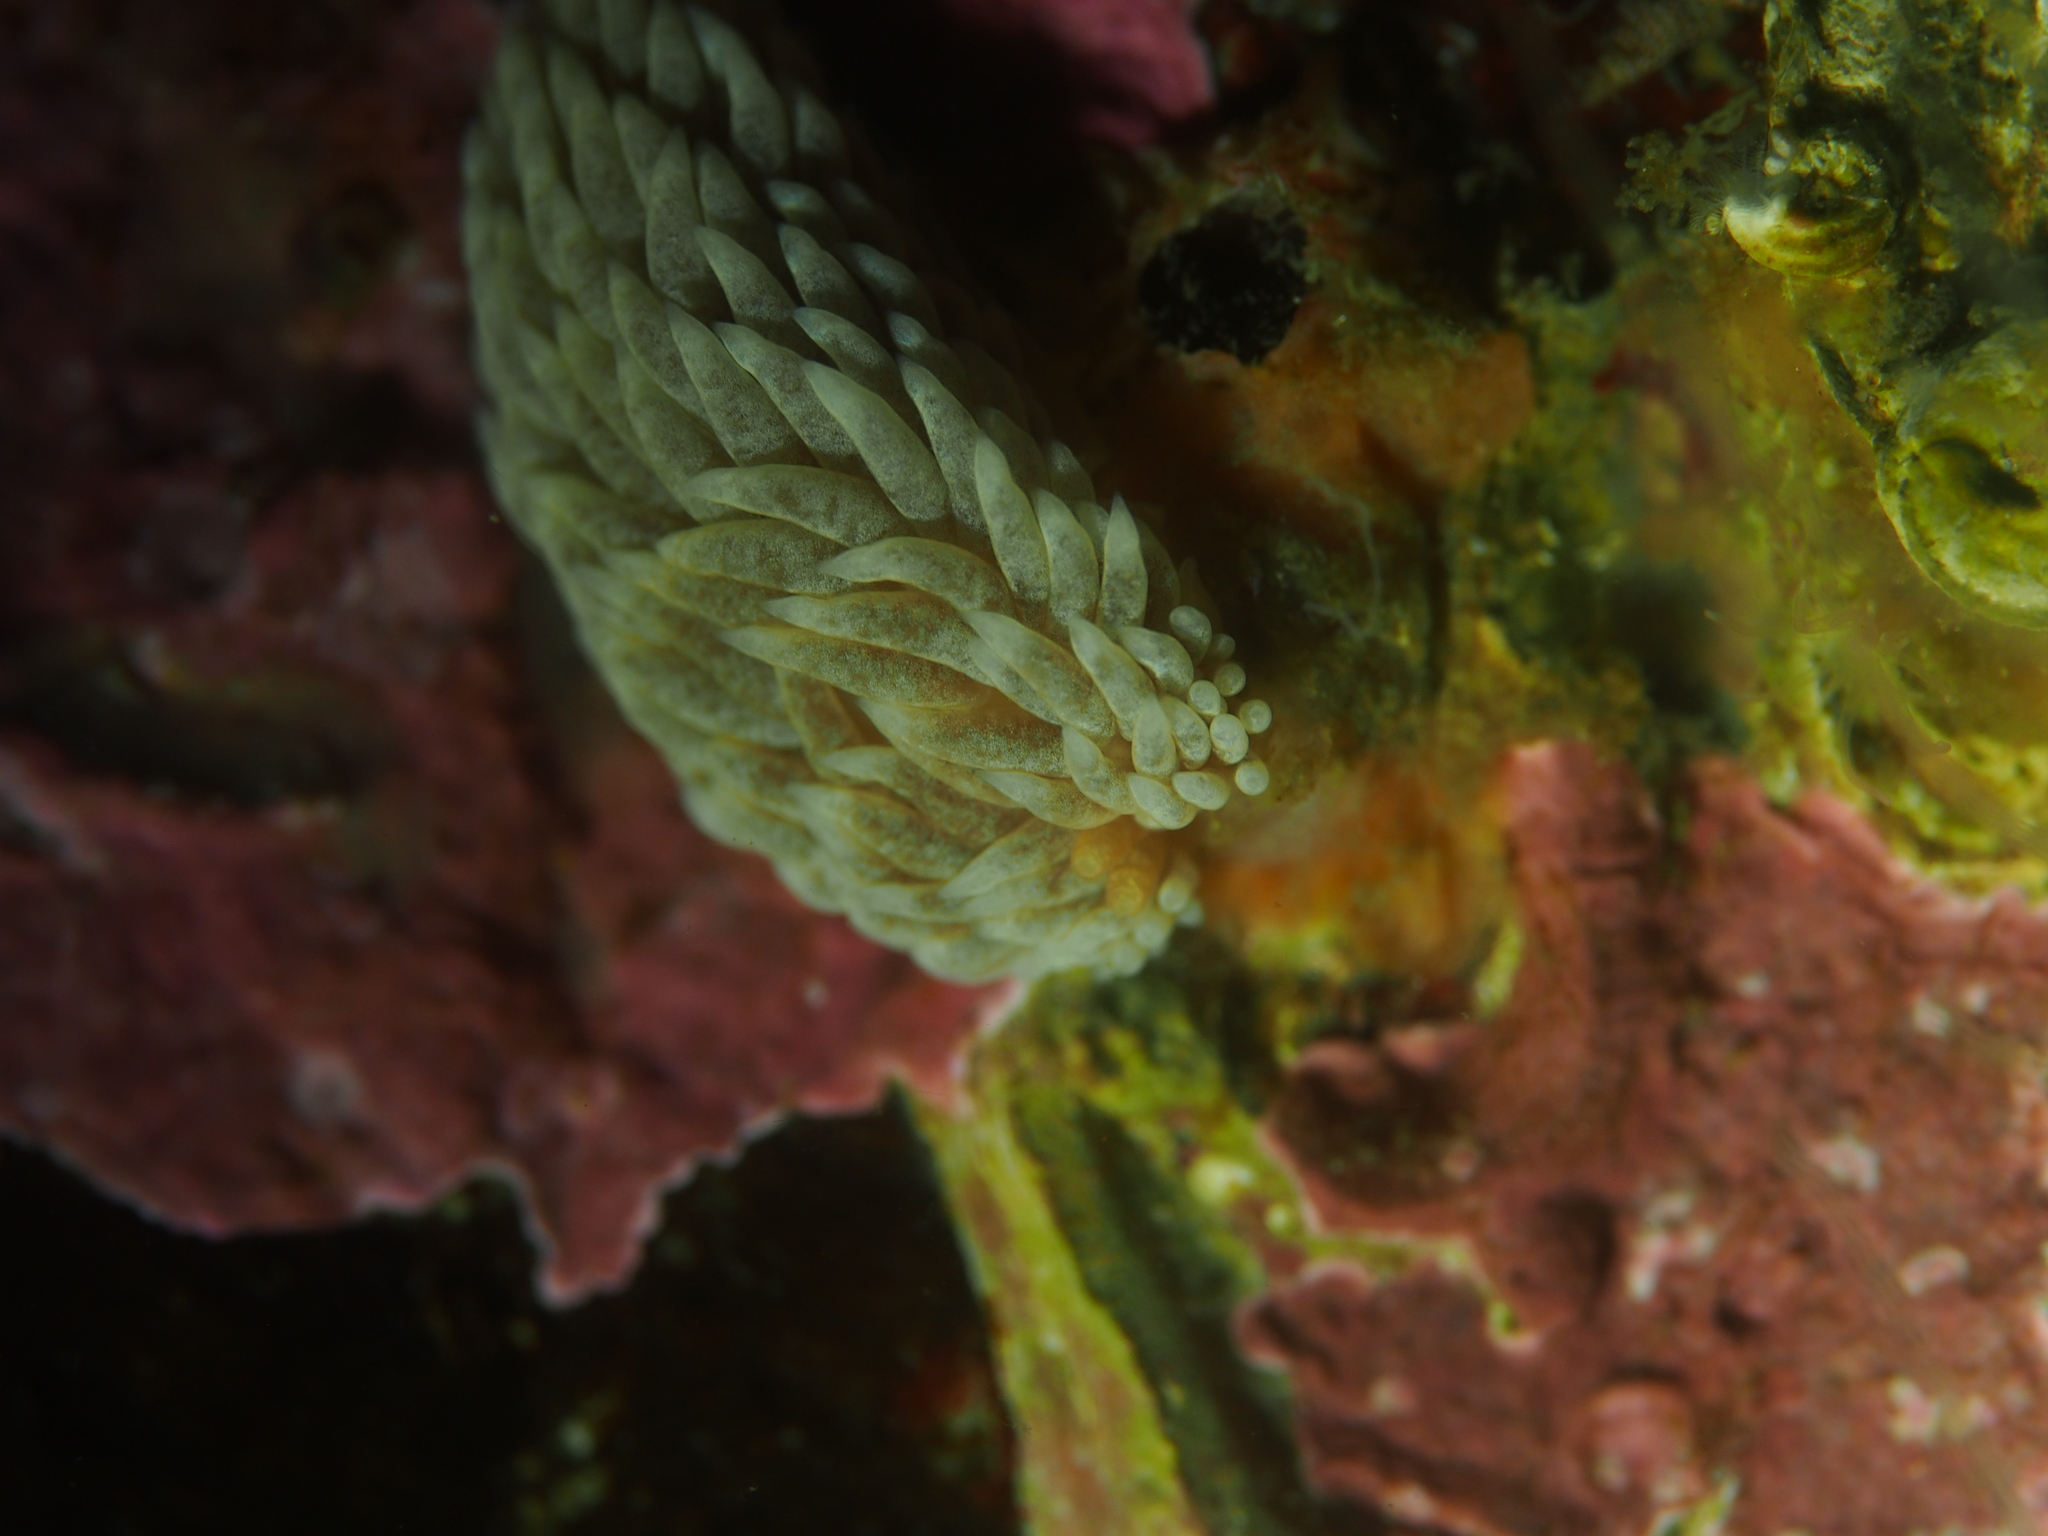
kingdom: Animalia
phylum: Mollusca
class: Gastropoda
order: Nudibranchia
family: Aeolidiidae
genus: Aeolidiella
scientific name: Aeolidiella glauca
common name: Orange-brown aeolid
